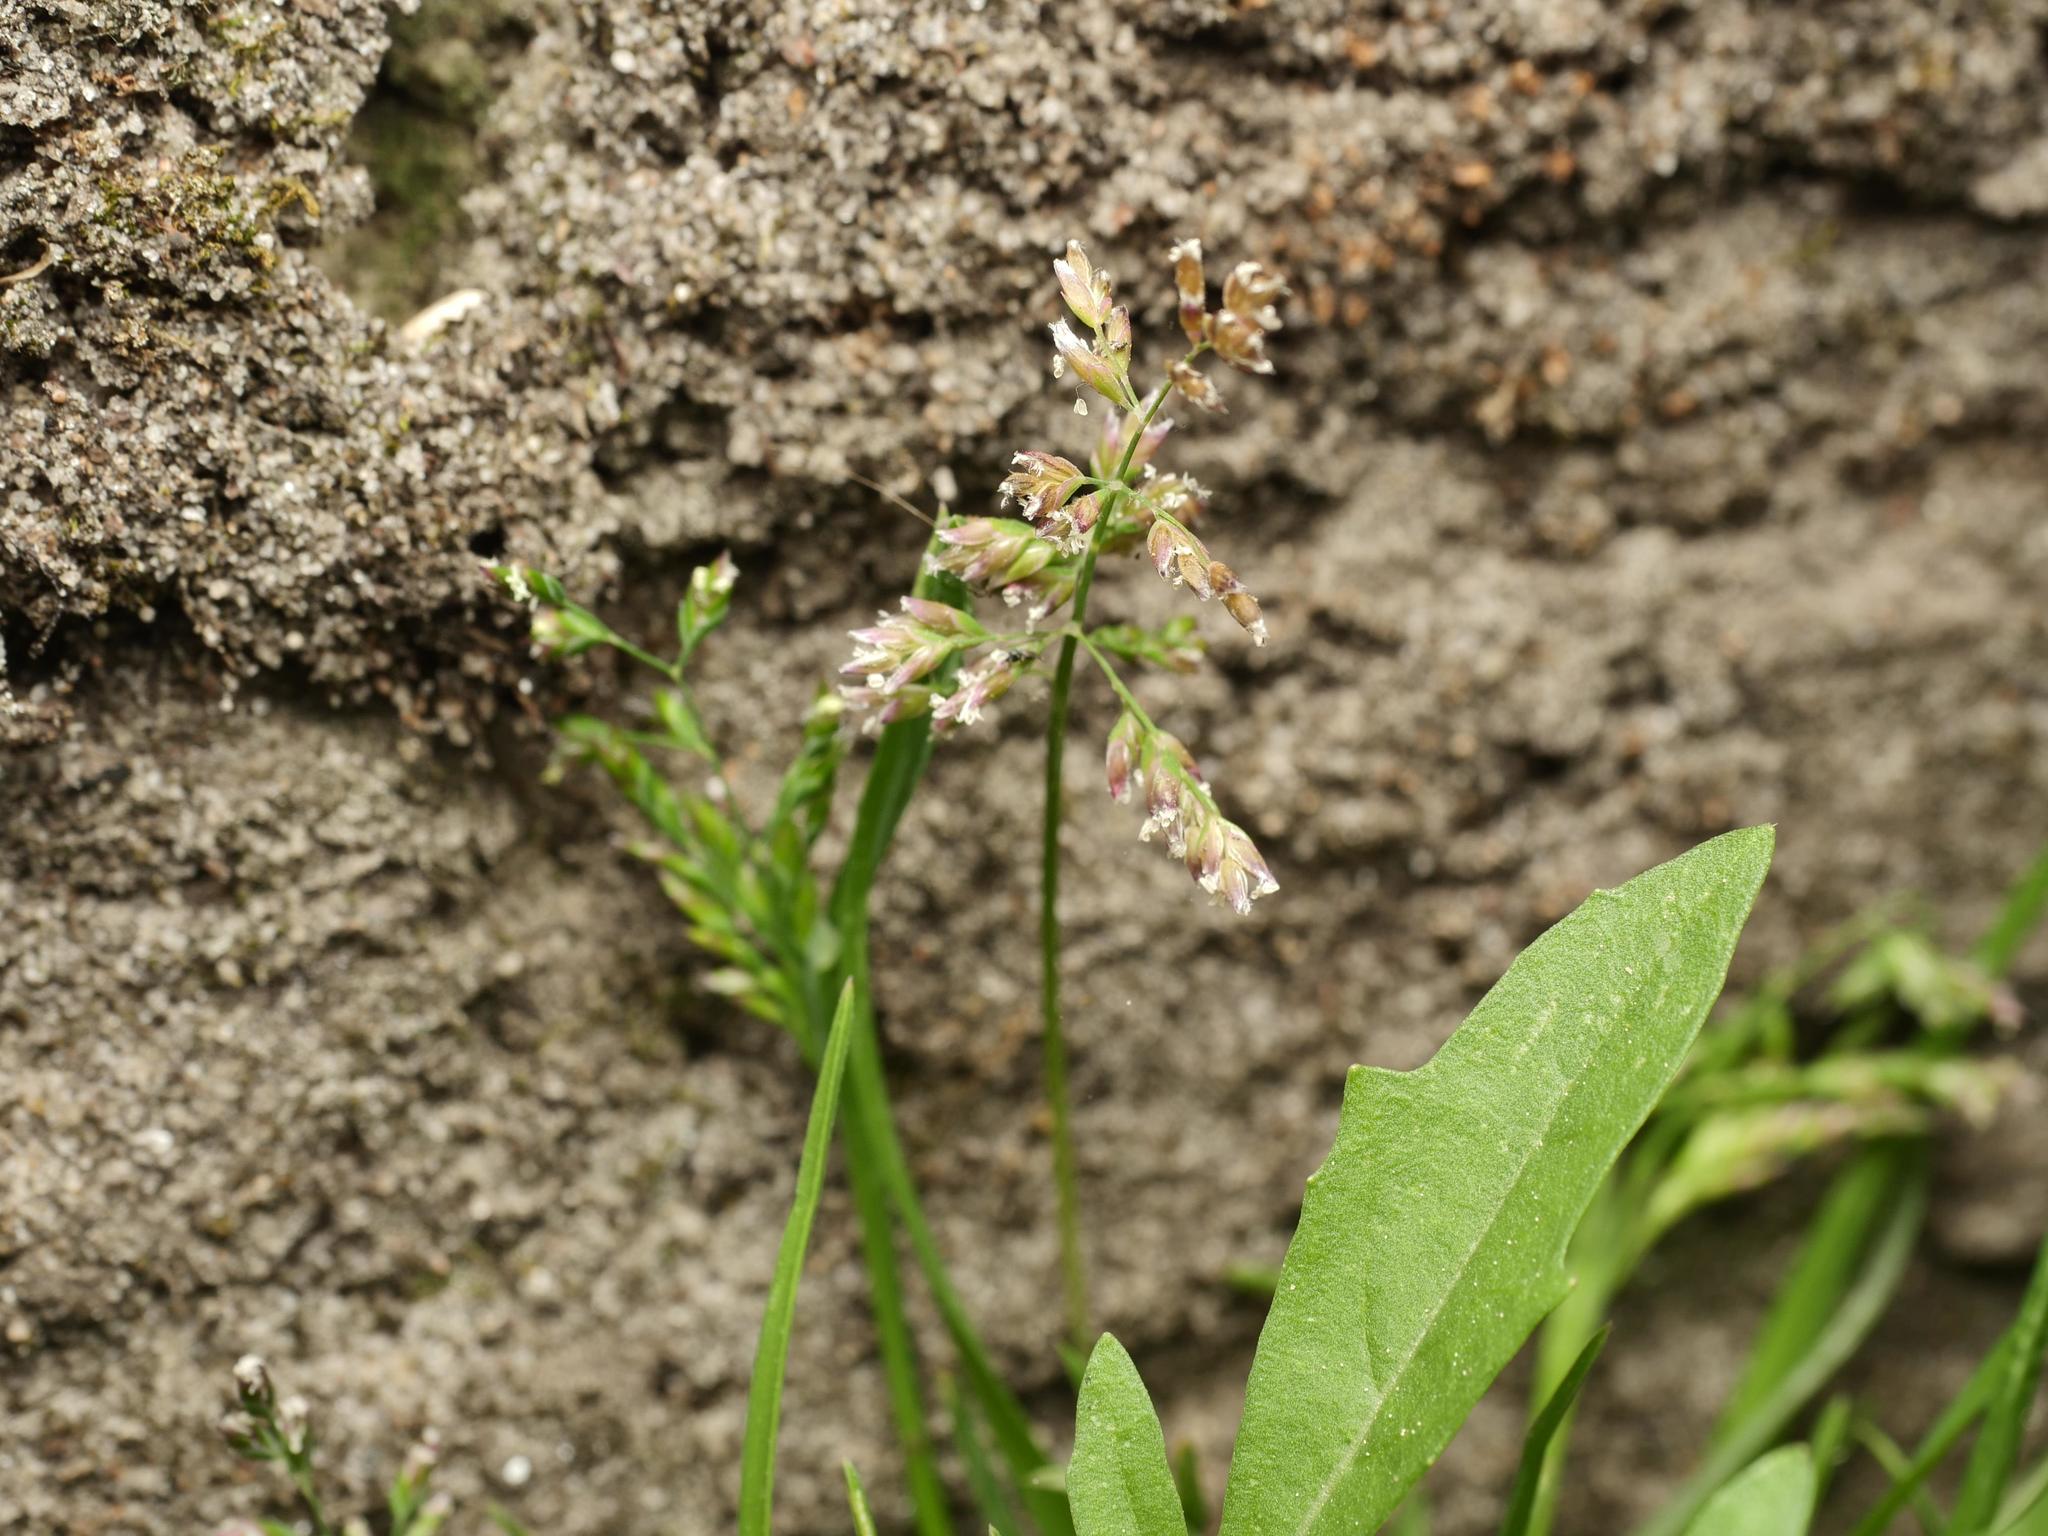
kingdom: Plantae
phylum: Tracheophyta
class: Liliopsida
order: Poales
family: Poaceae
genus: Poa
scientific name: Poa annua
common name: Annual bluegrass
